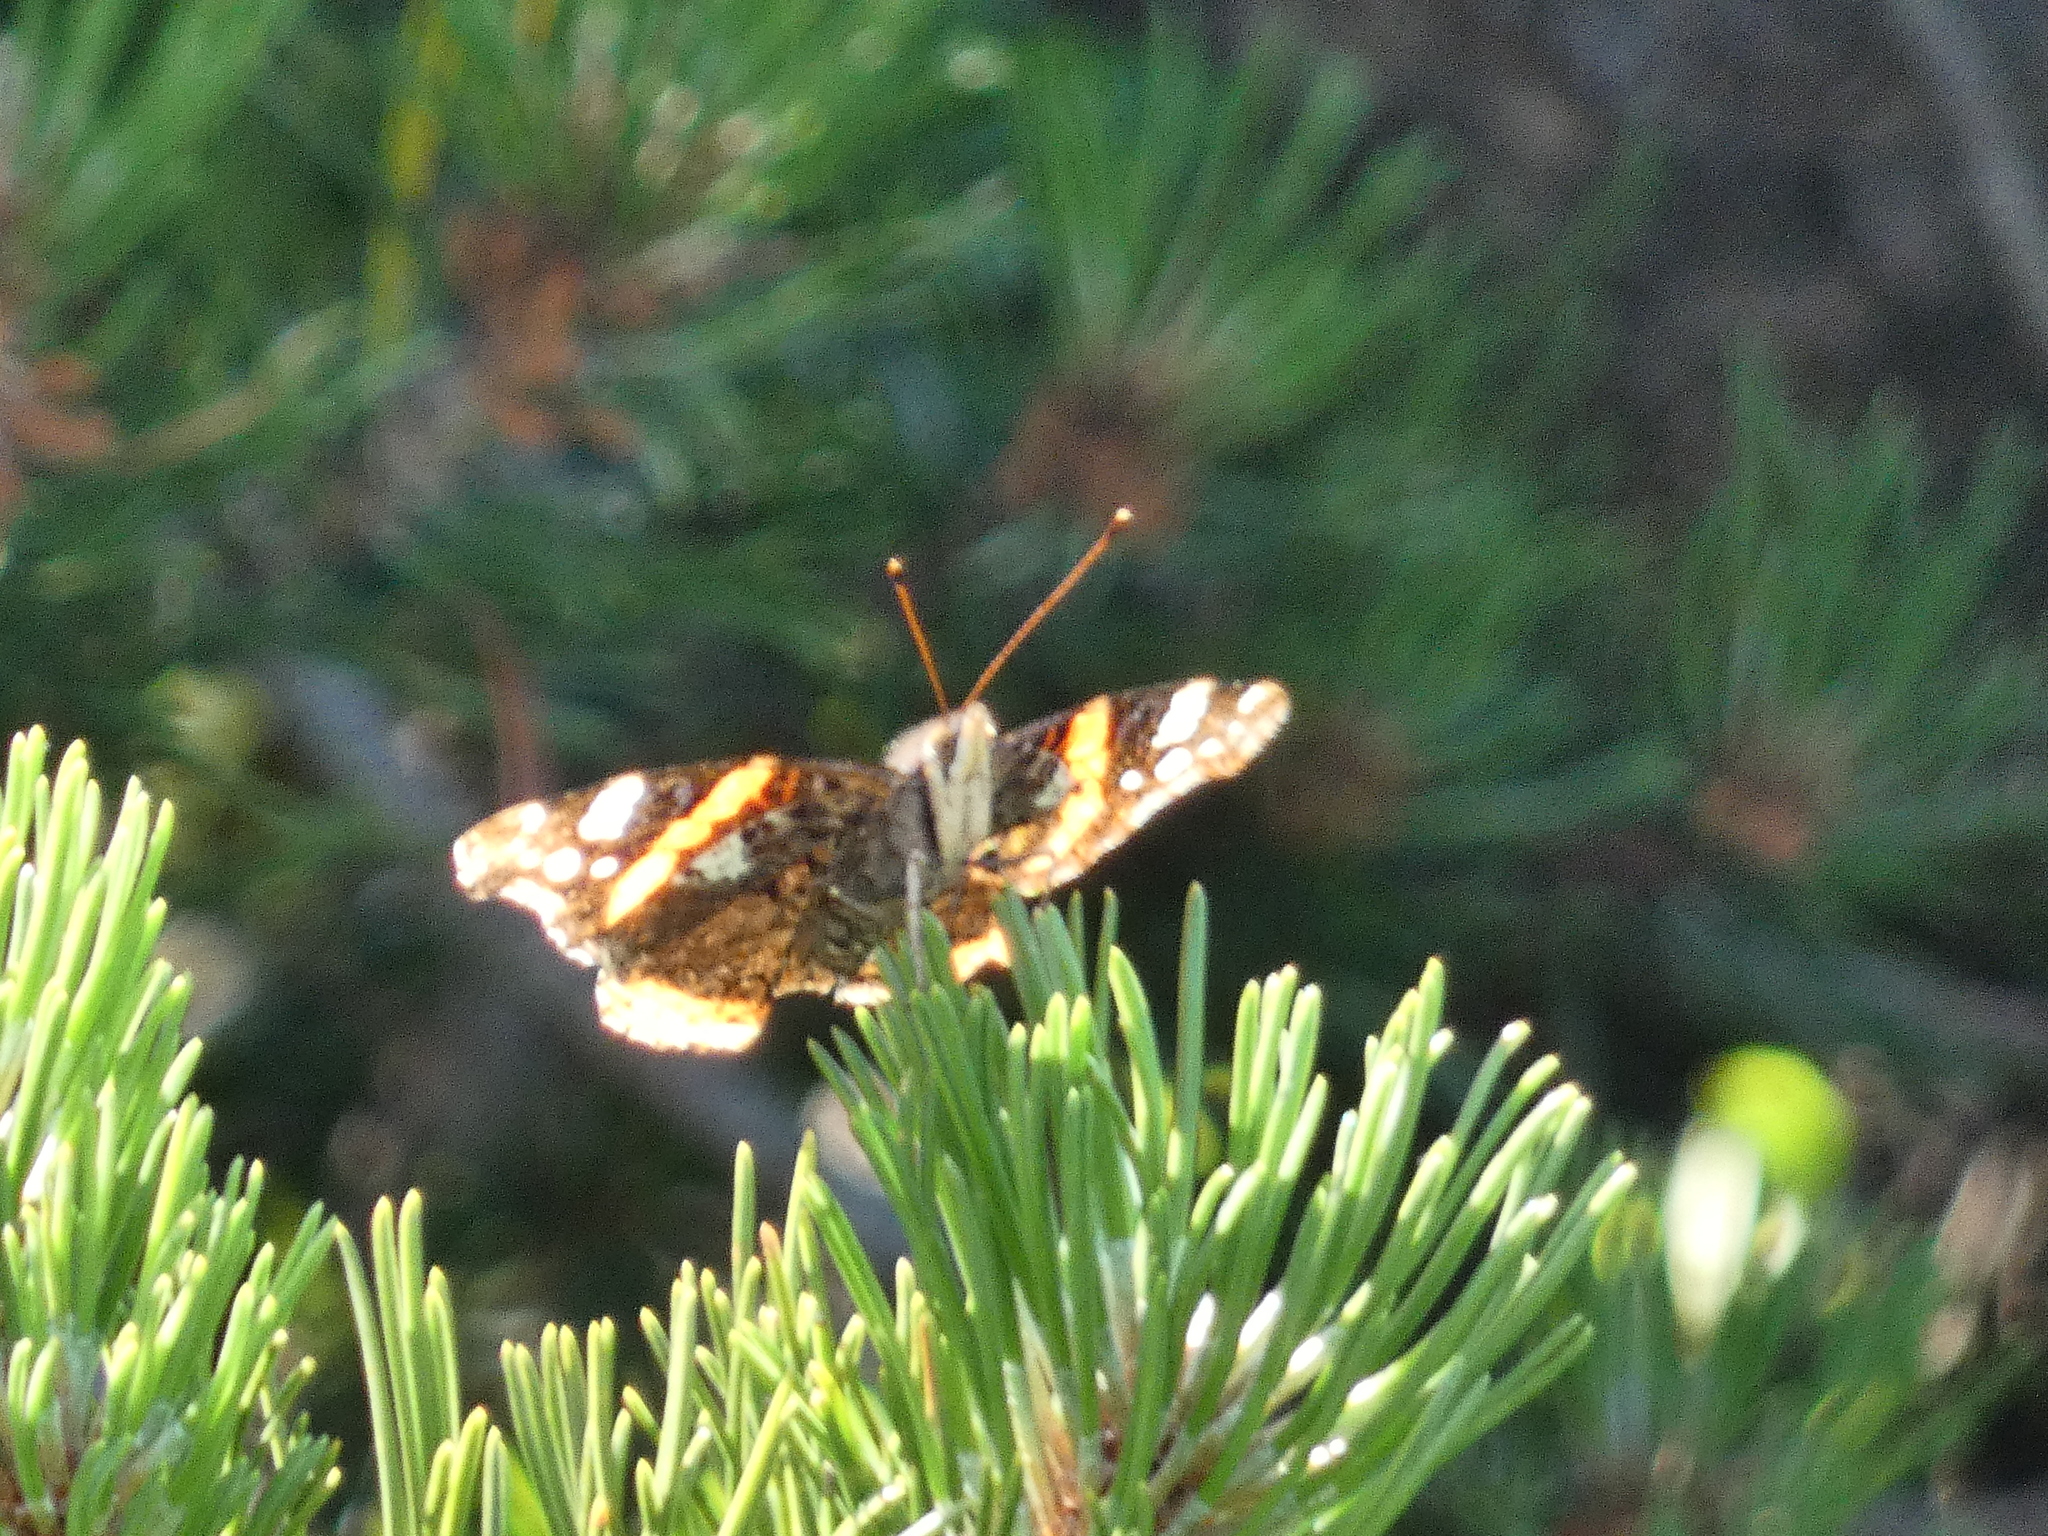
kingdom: Animalia
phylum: Arthropoda
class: Insecta
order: Lepidoptera
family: Nymphalidae
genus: Vanessa
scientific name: Vanessa atalanta
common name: Red admiral
